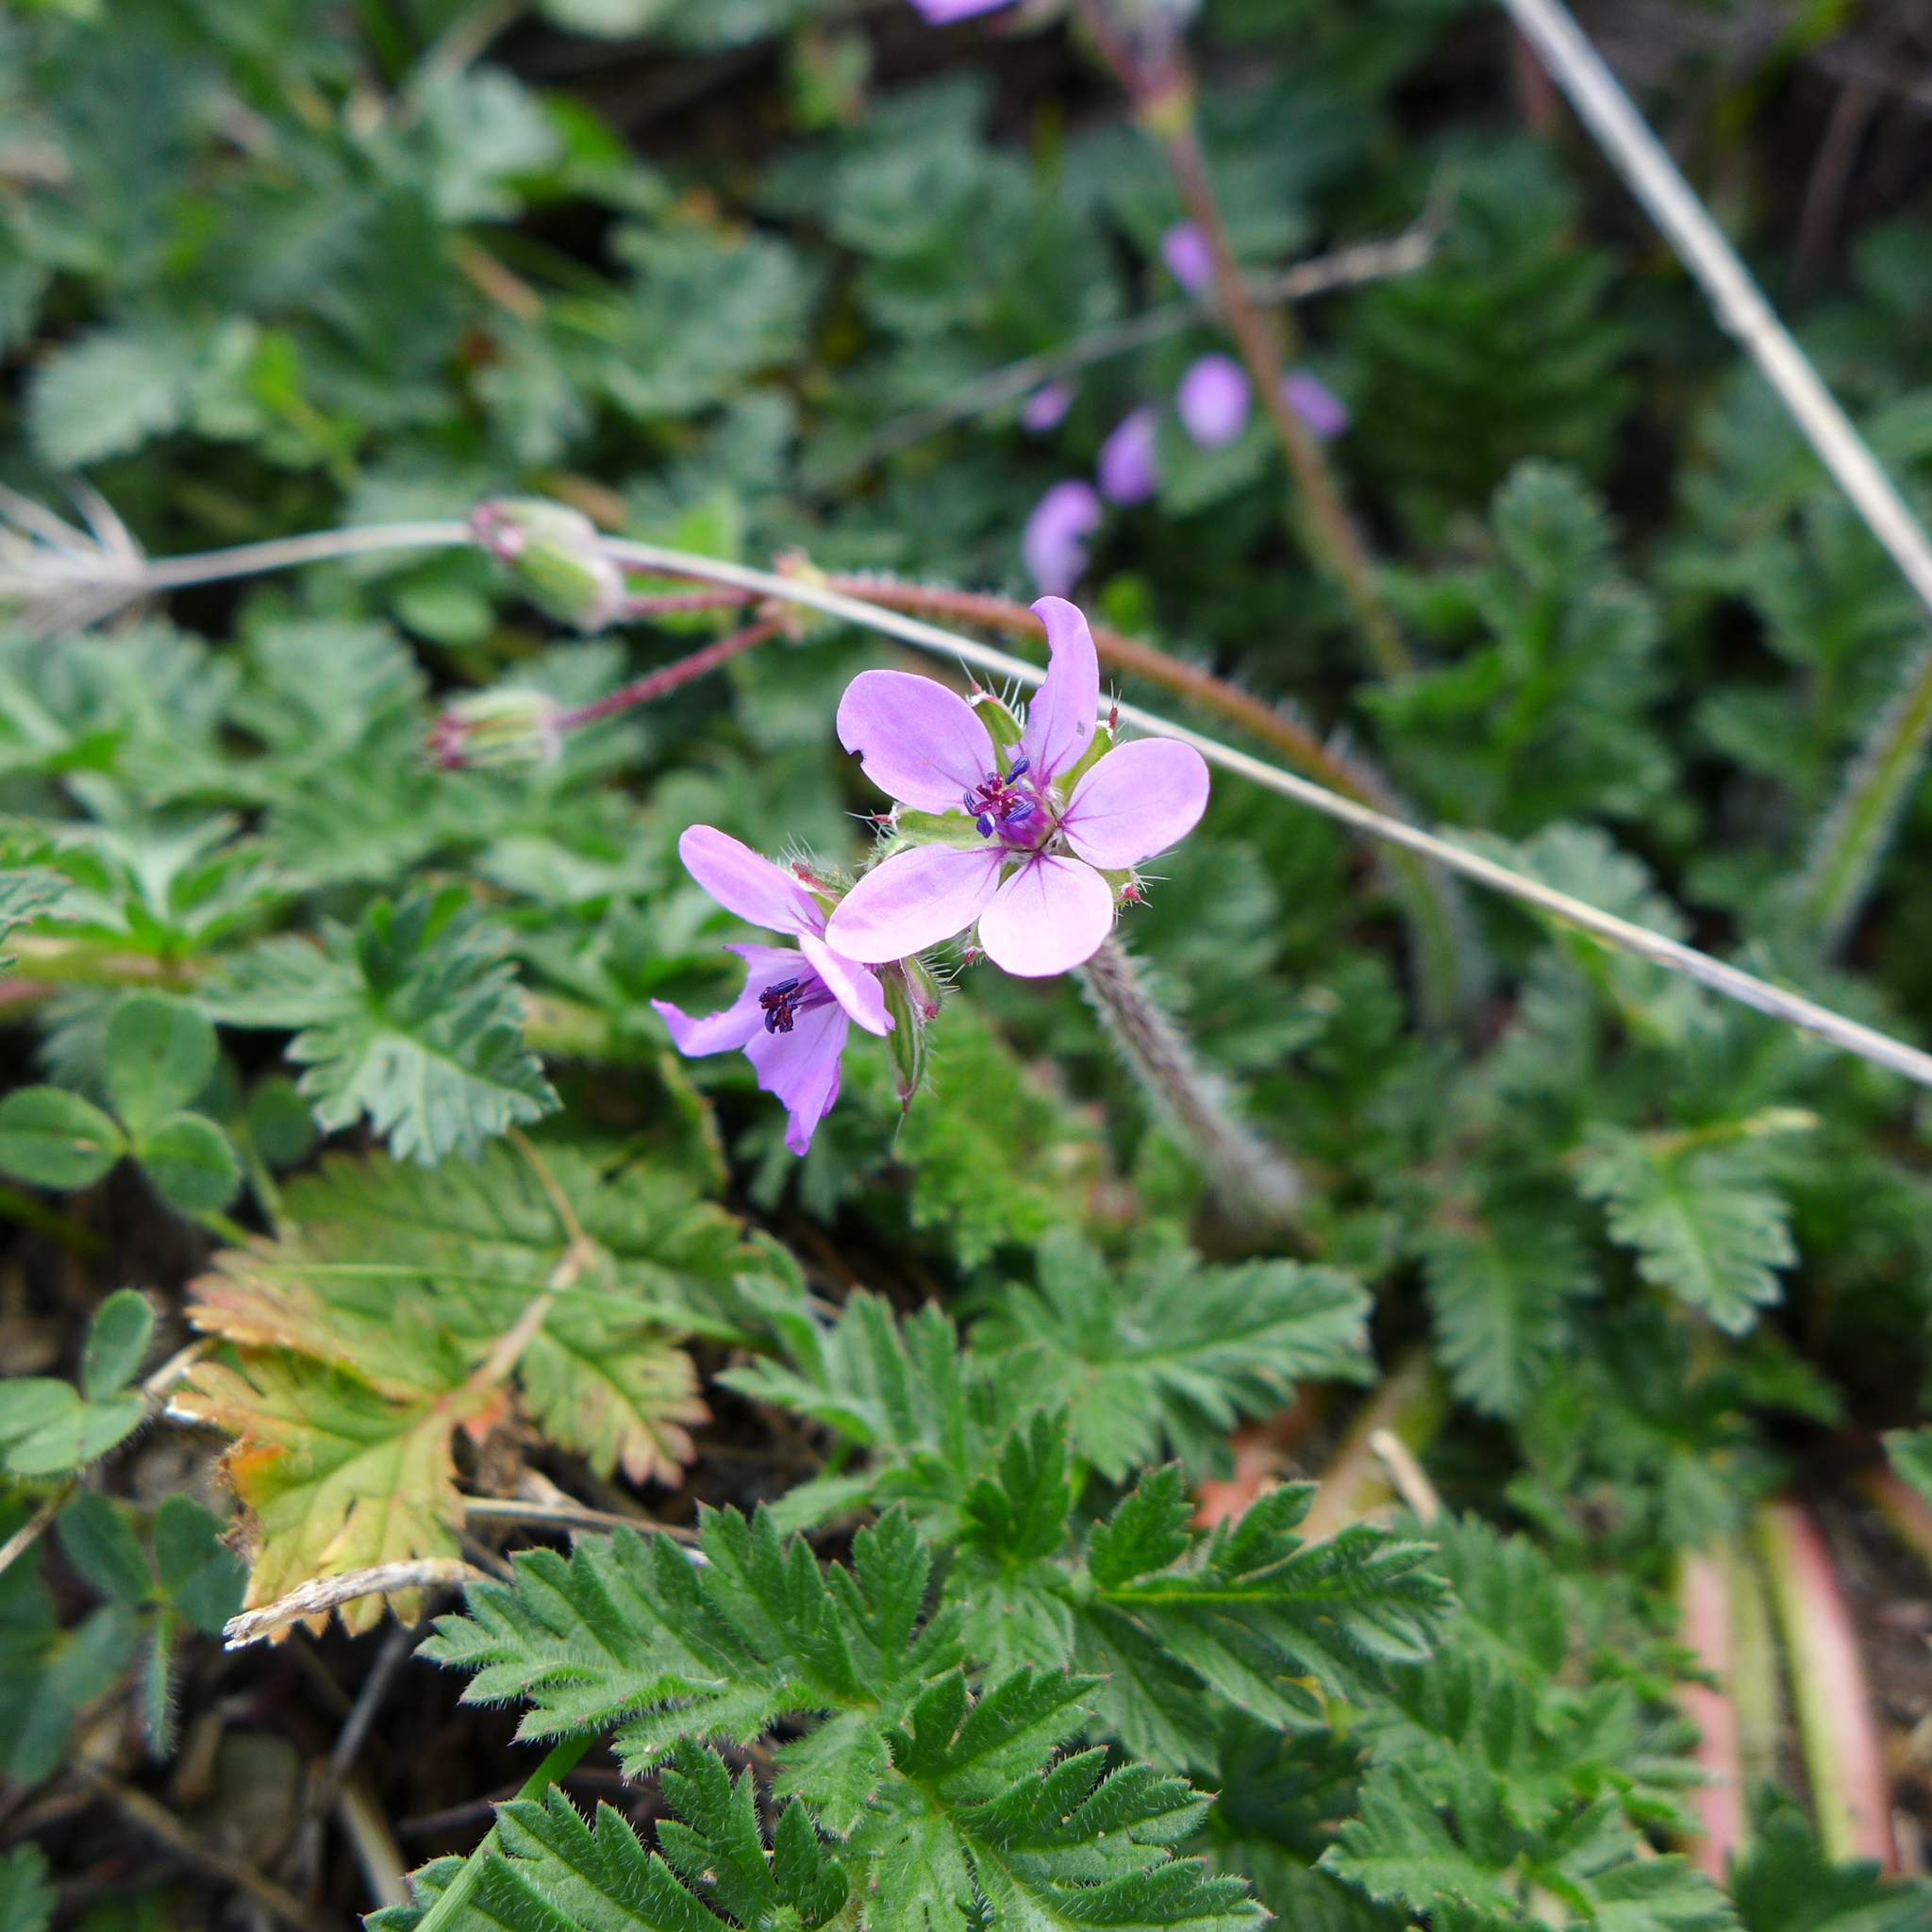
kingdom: Plantae
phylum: Tracheophyta
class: Magnoliopsida
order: Geraniales
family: Geraniaceae
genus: Erodium
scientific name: Erodium cicutarium
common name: Common stork's-bill
